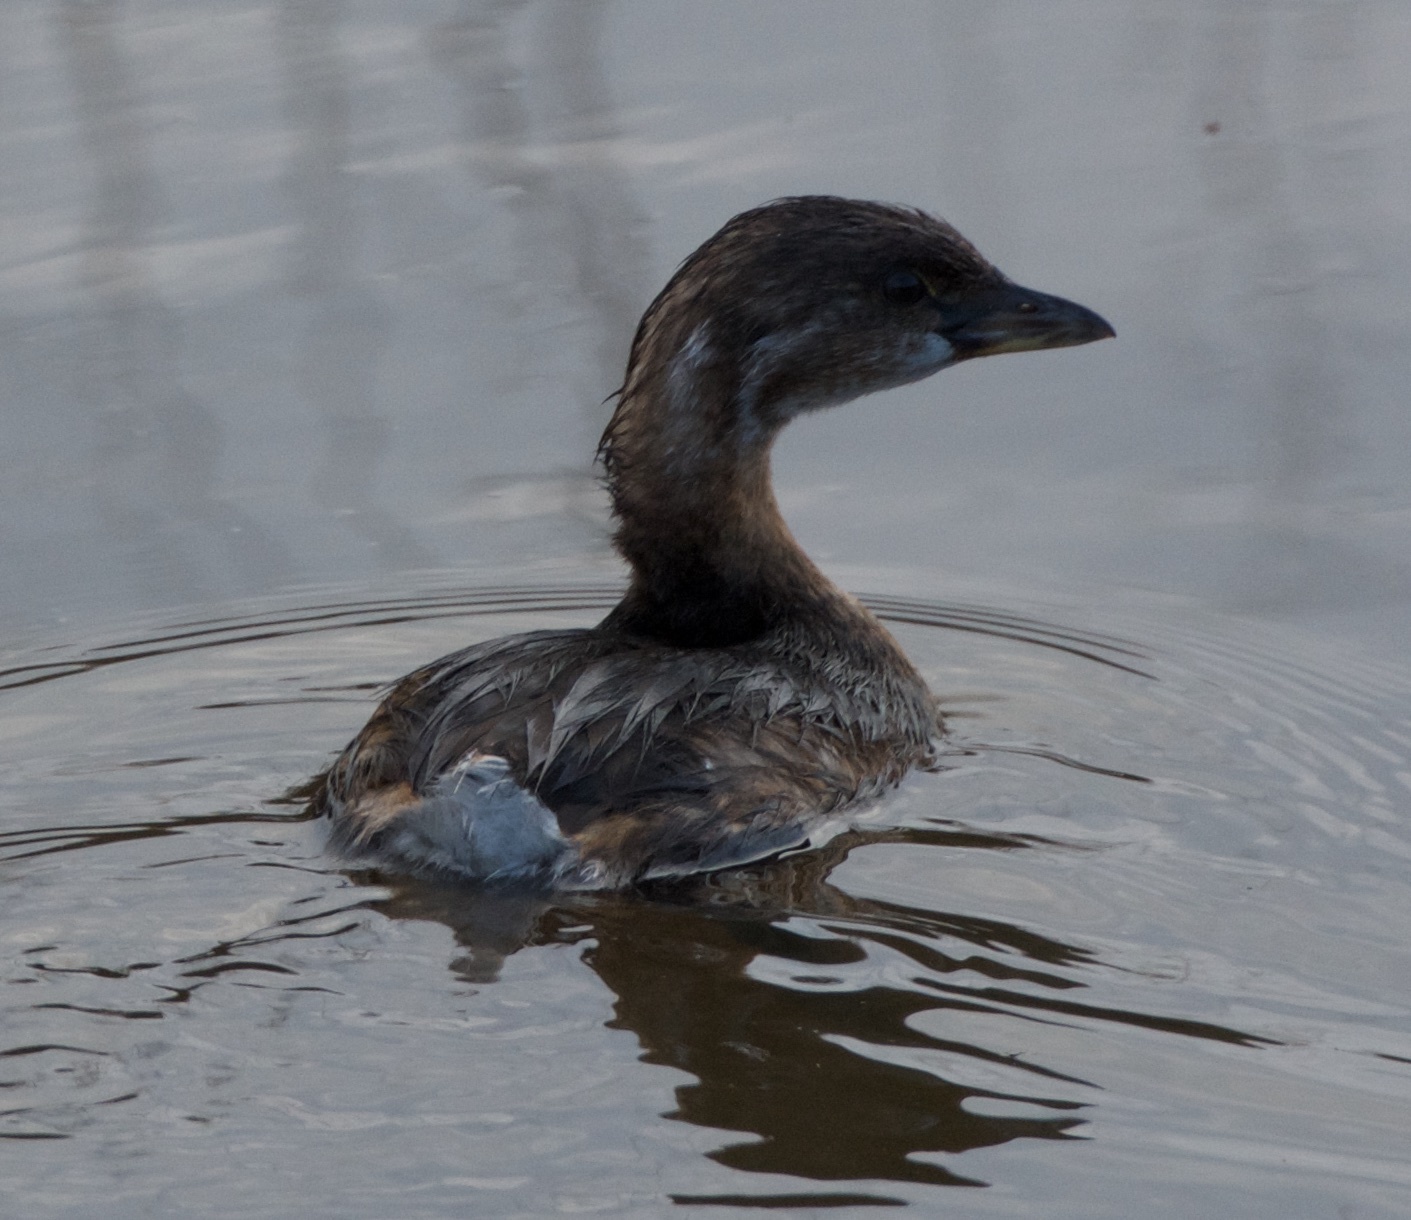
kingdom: Animalia
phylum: Chordata
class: Aves
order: Podicipediformes
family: Podicipedidae
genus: Podilymbus
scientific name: Podilymbus podiceps
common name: Pied-billed grebe
